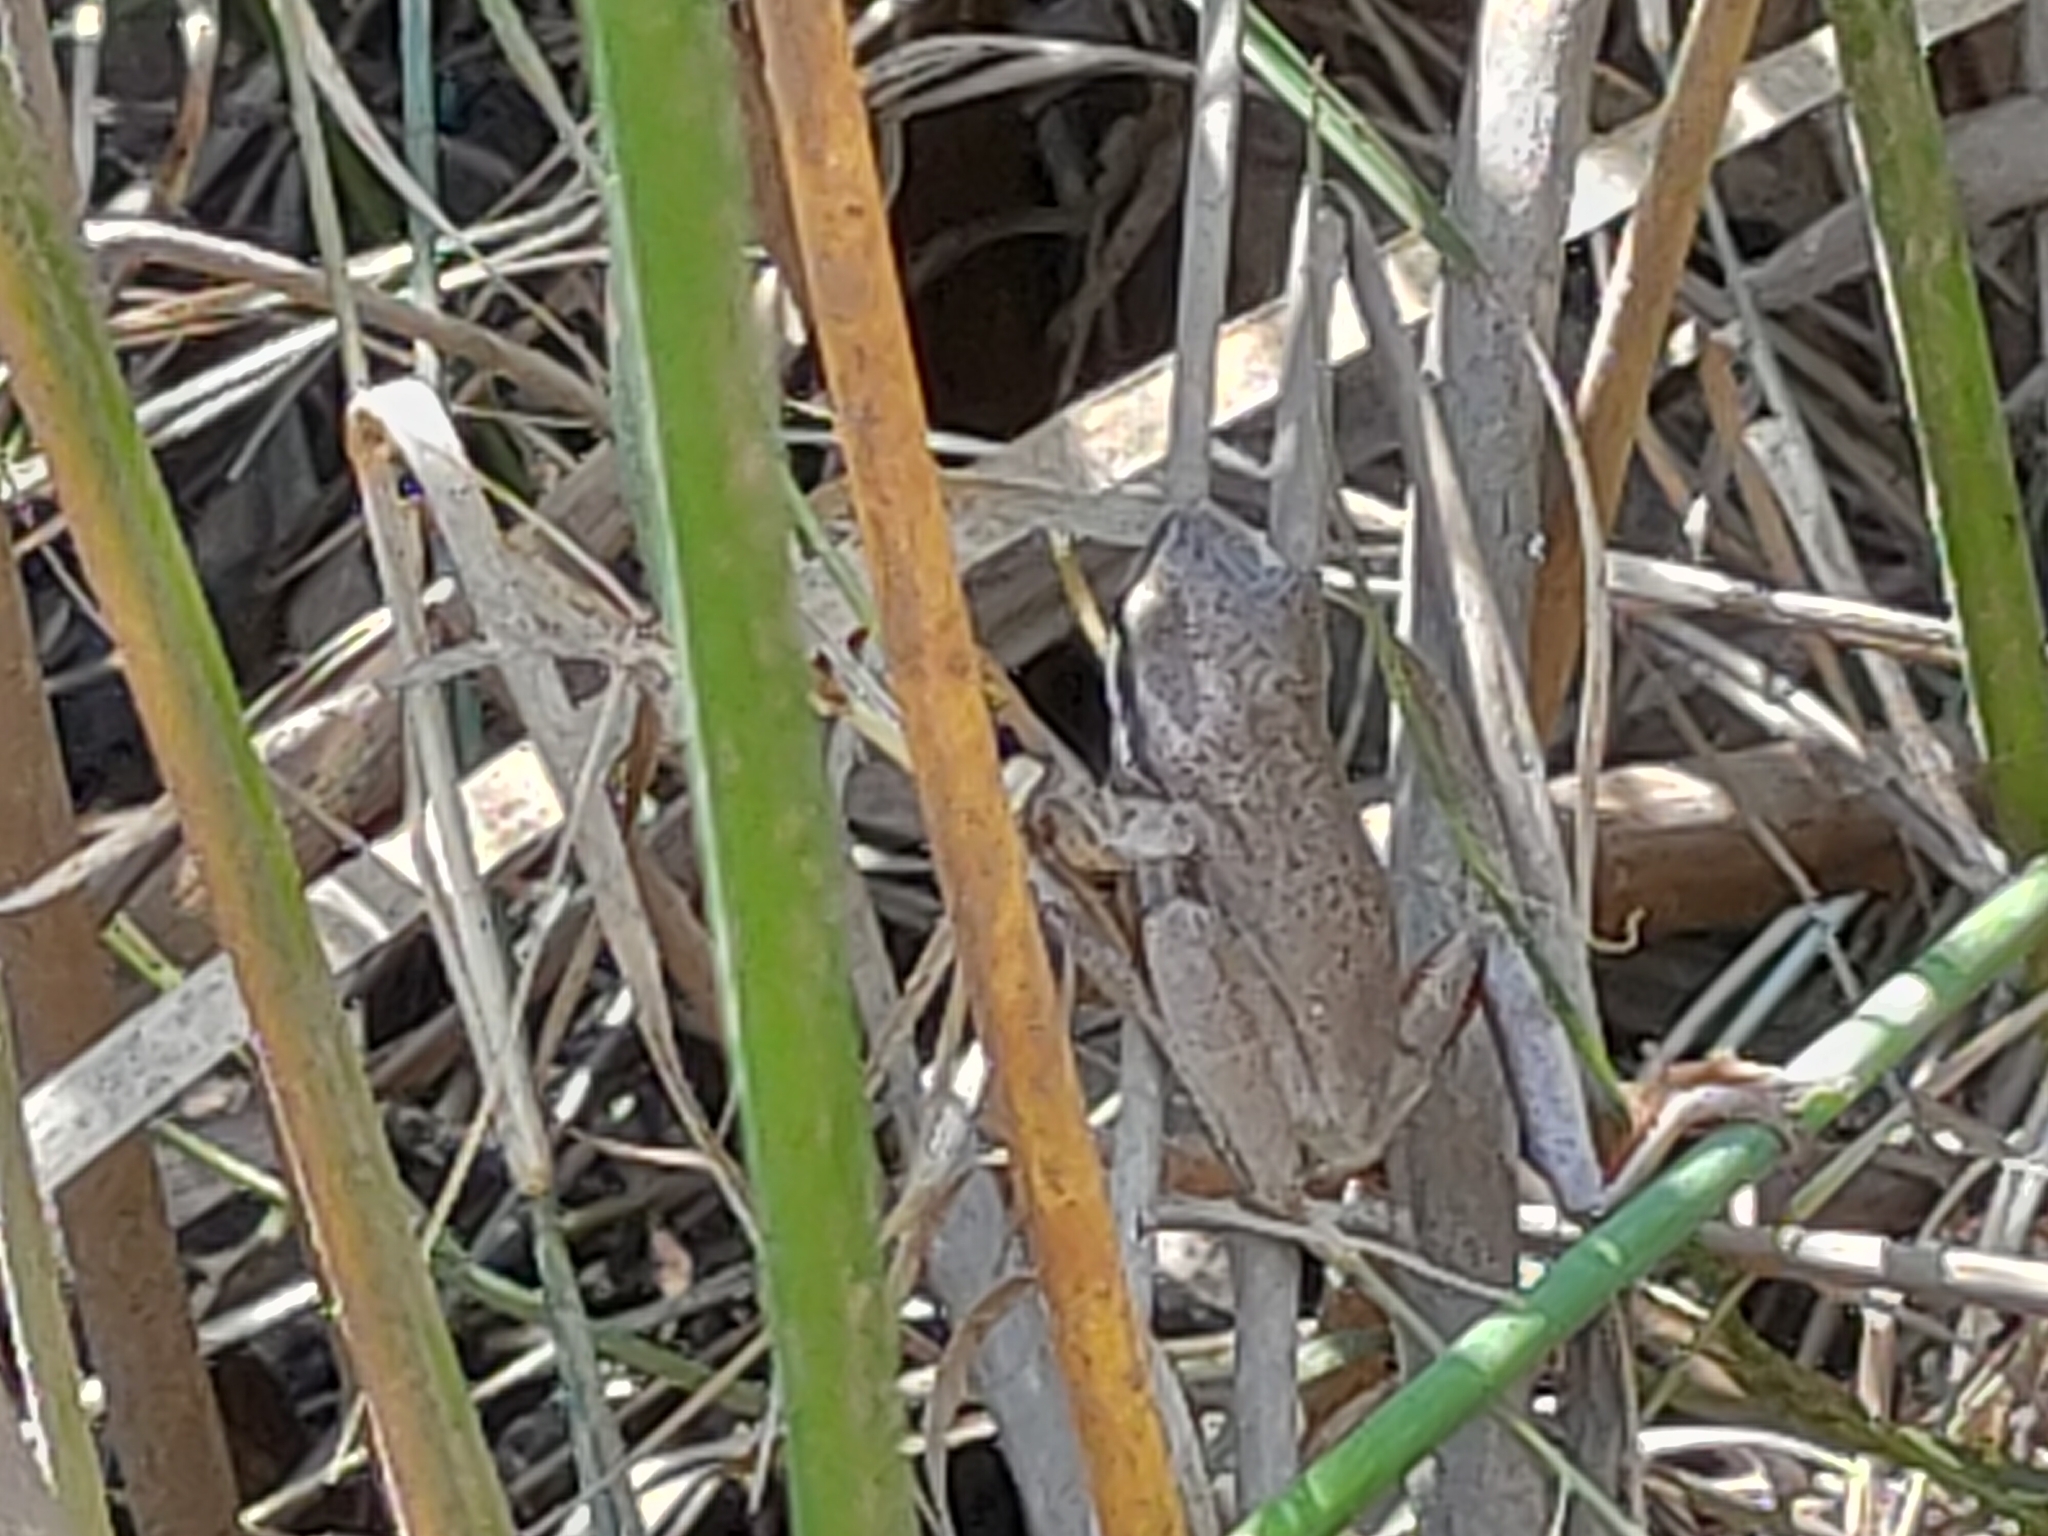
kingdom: Animalia
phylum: Chordata
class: Amphibia
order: Anura
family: Myobatrachidae
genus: Crinia
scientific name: Crinia signifera
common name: Brown froglet
